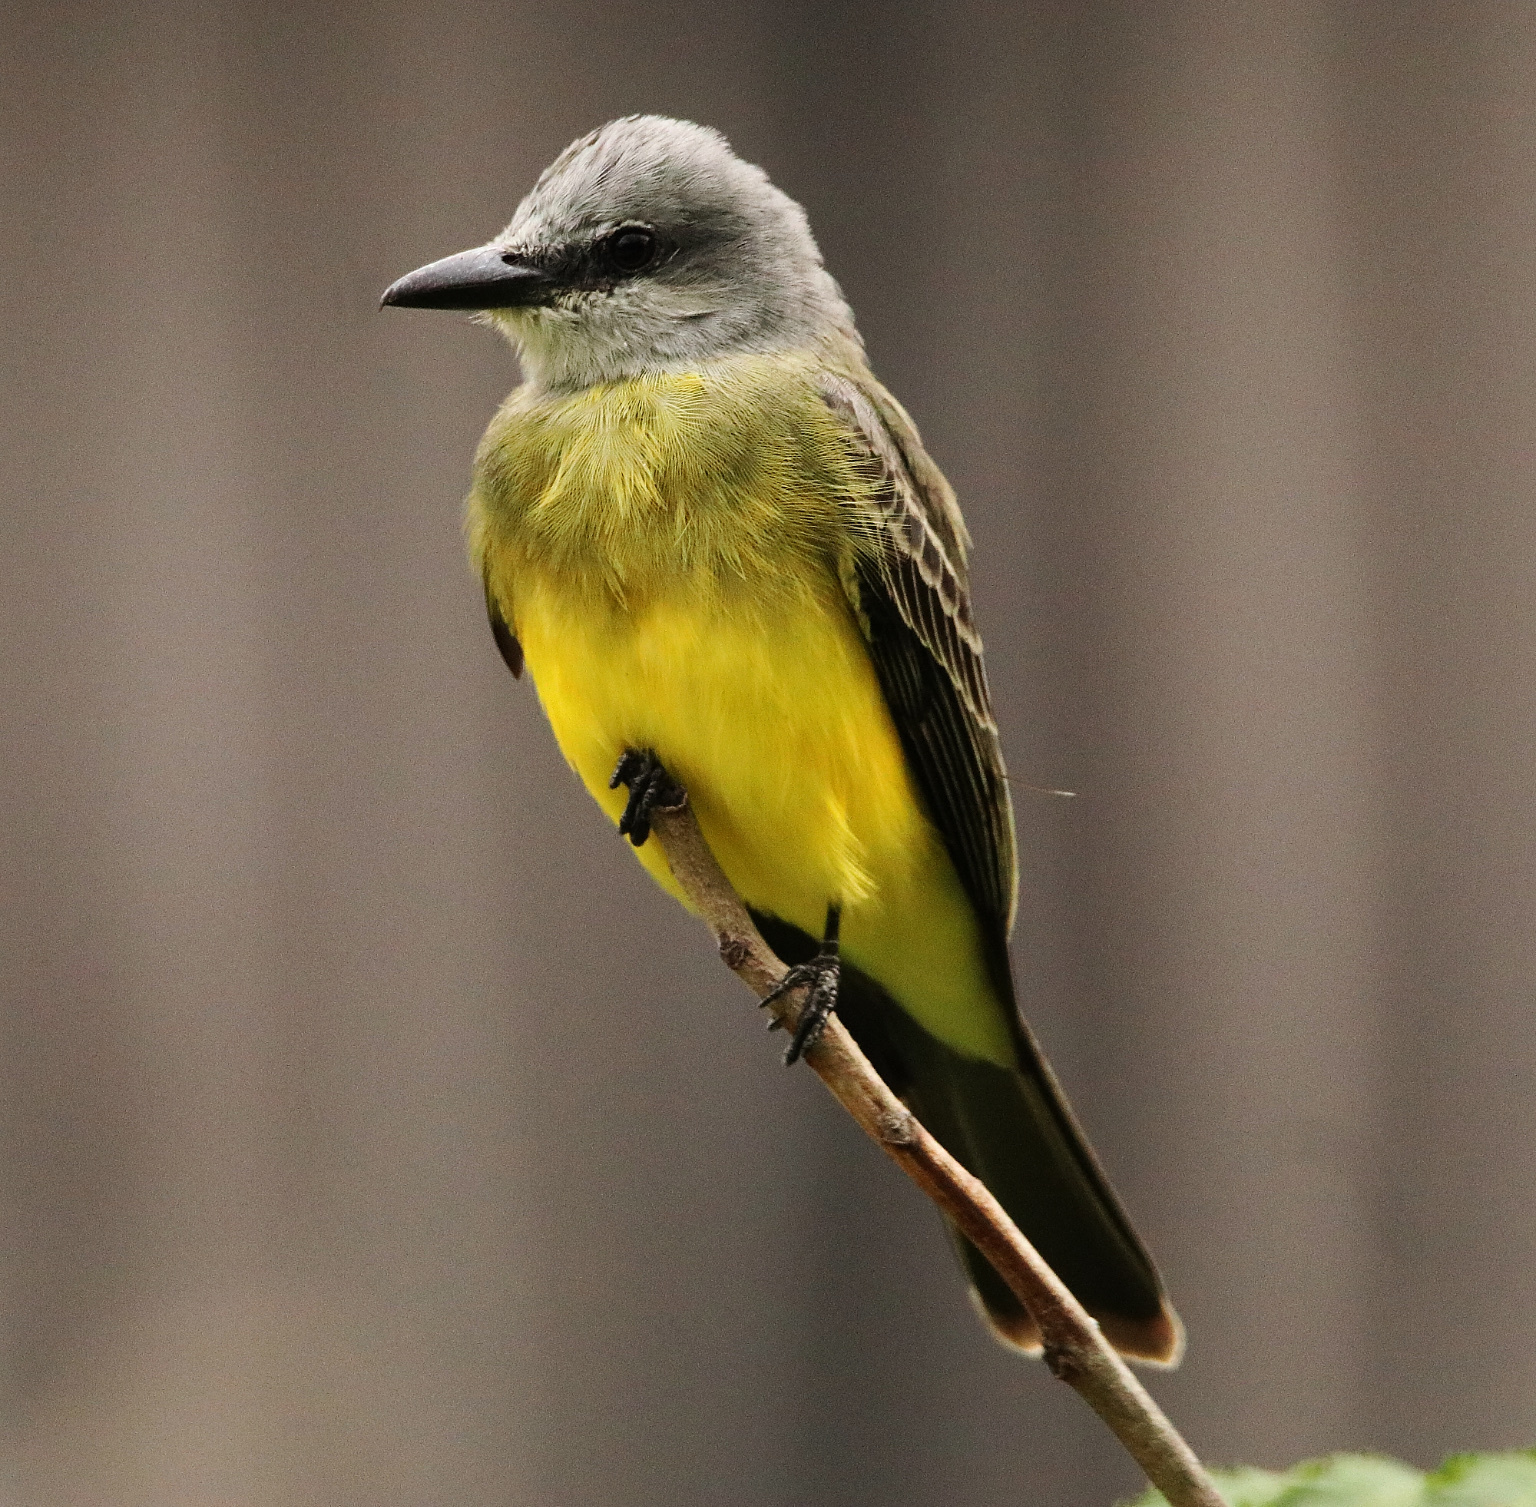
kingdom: Animalia
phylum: Chordata
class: Aves
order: Passeriformes
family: Tyrannidae
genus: Tyrannus
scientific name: Tyrannus melancholicus
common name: Tropical kingbird
